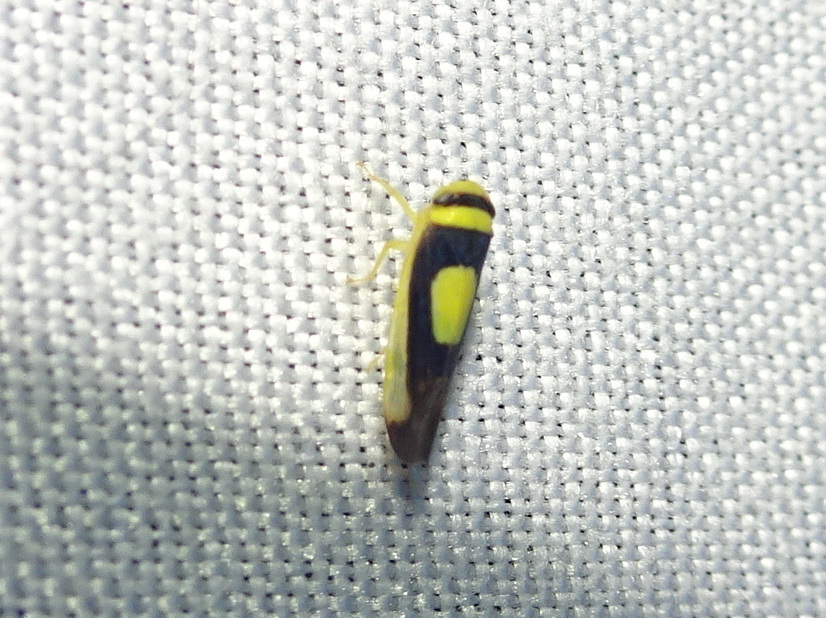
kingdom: Animalia
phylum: Arthropoda
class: Insecta
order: Hemiptera
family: Cicadellidae
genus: Colladonus
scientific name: Colladonus clitellarius
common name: The saddleback leafhopper
